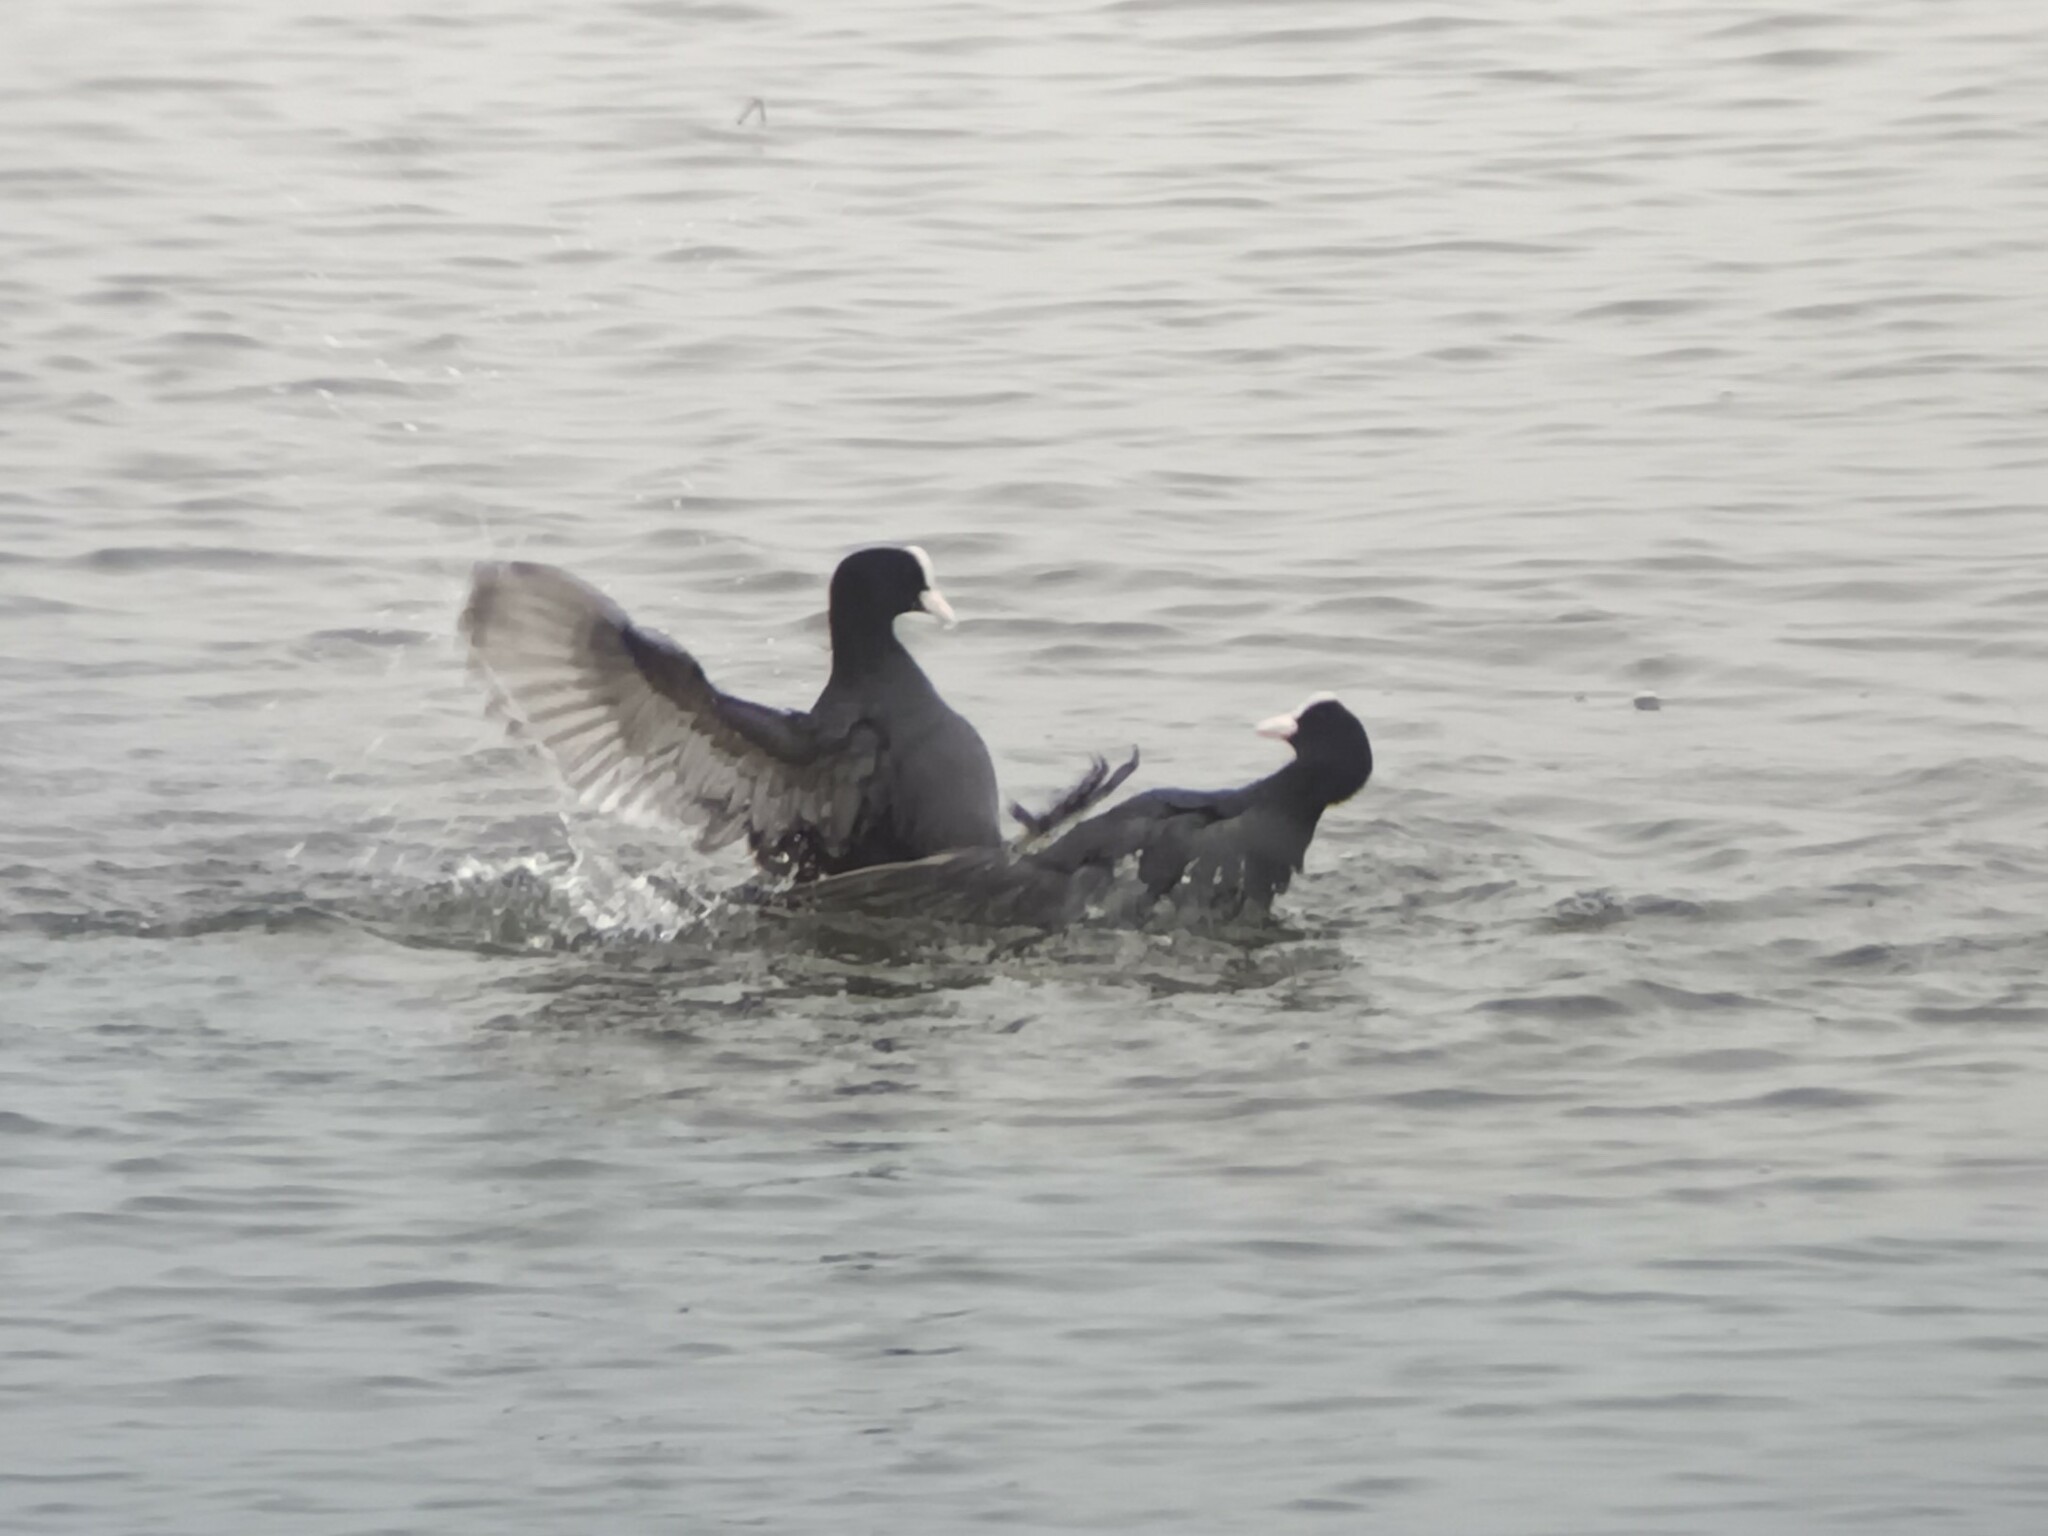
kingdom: Animalia
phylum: Chordata
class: Aves
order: Gruiformes
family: Rallidae
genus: Fulica
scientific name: Fulica atra
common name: Eurasian coot
